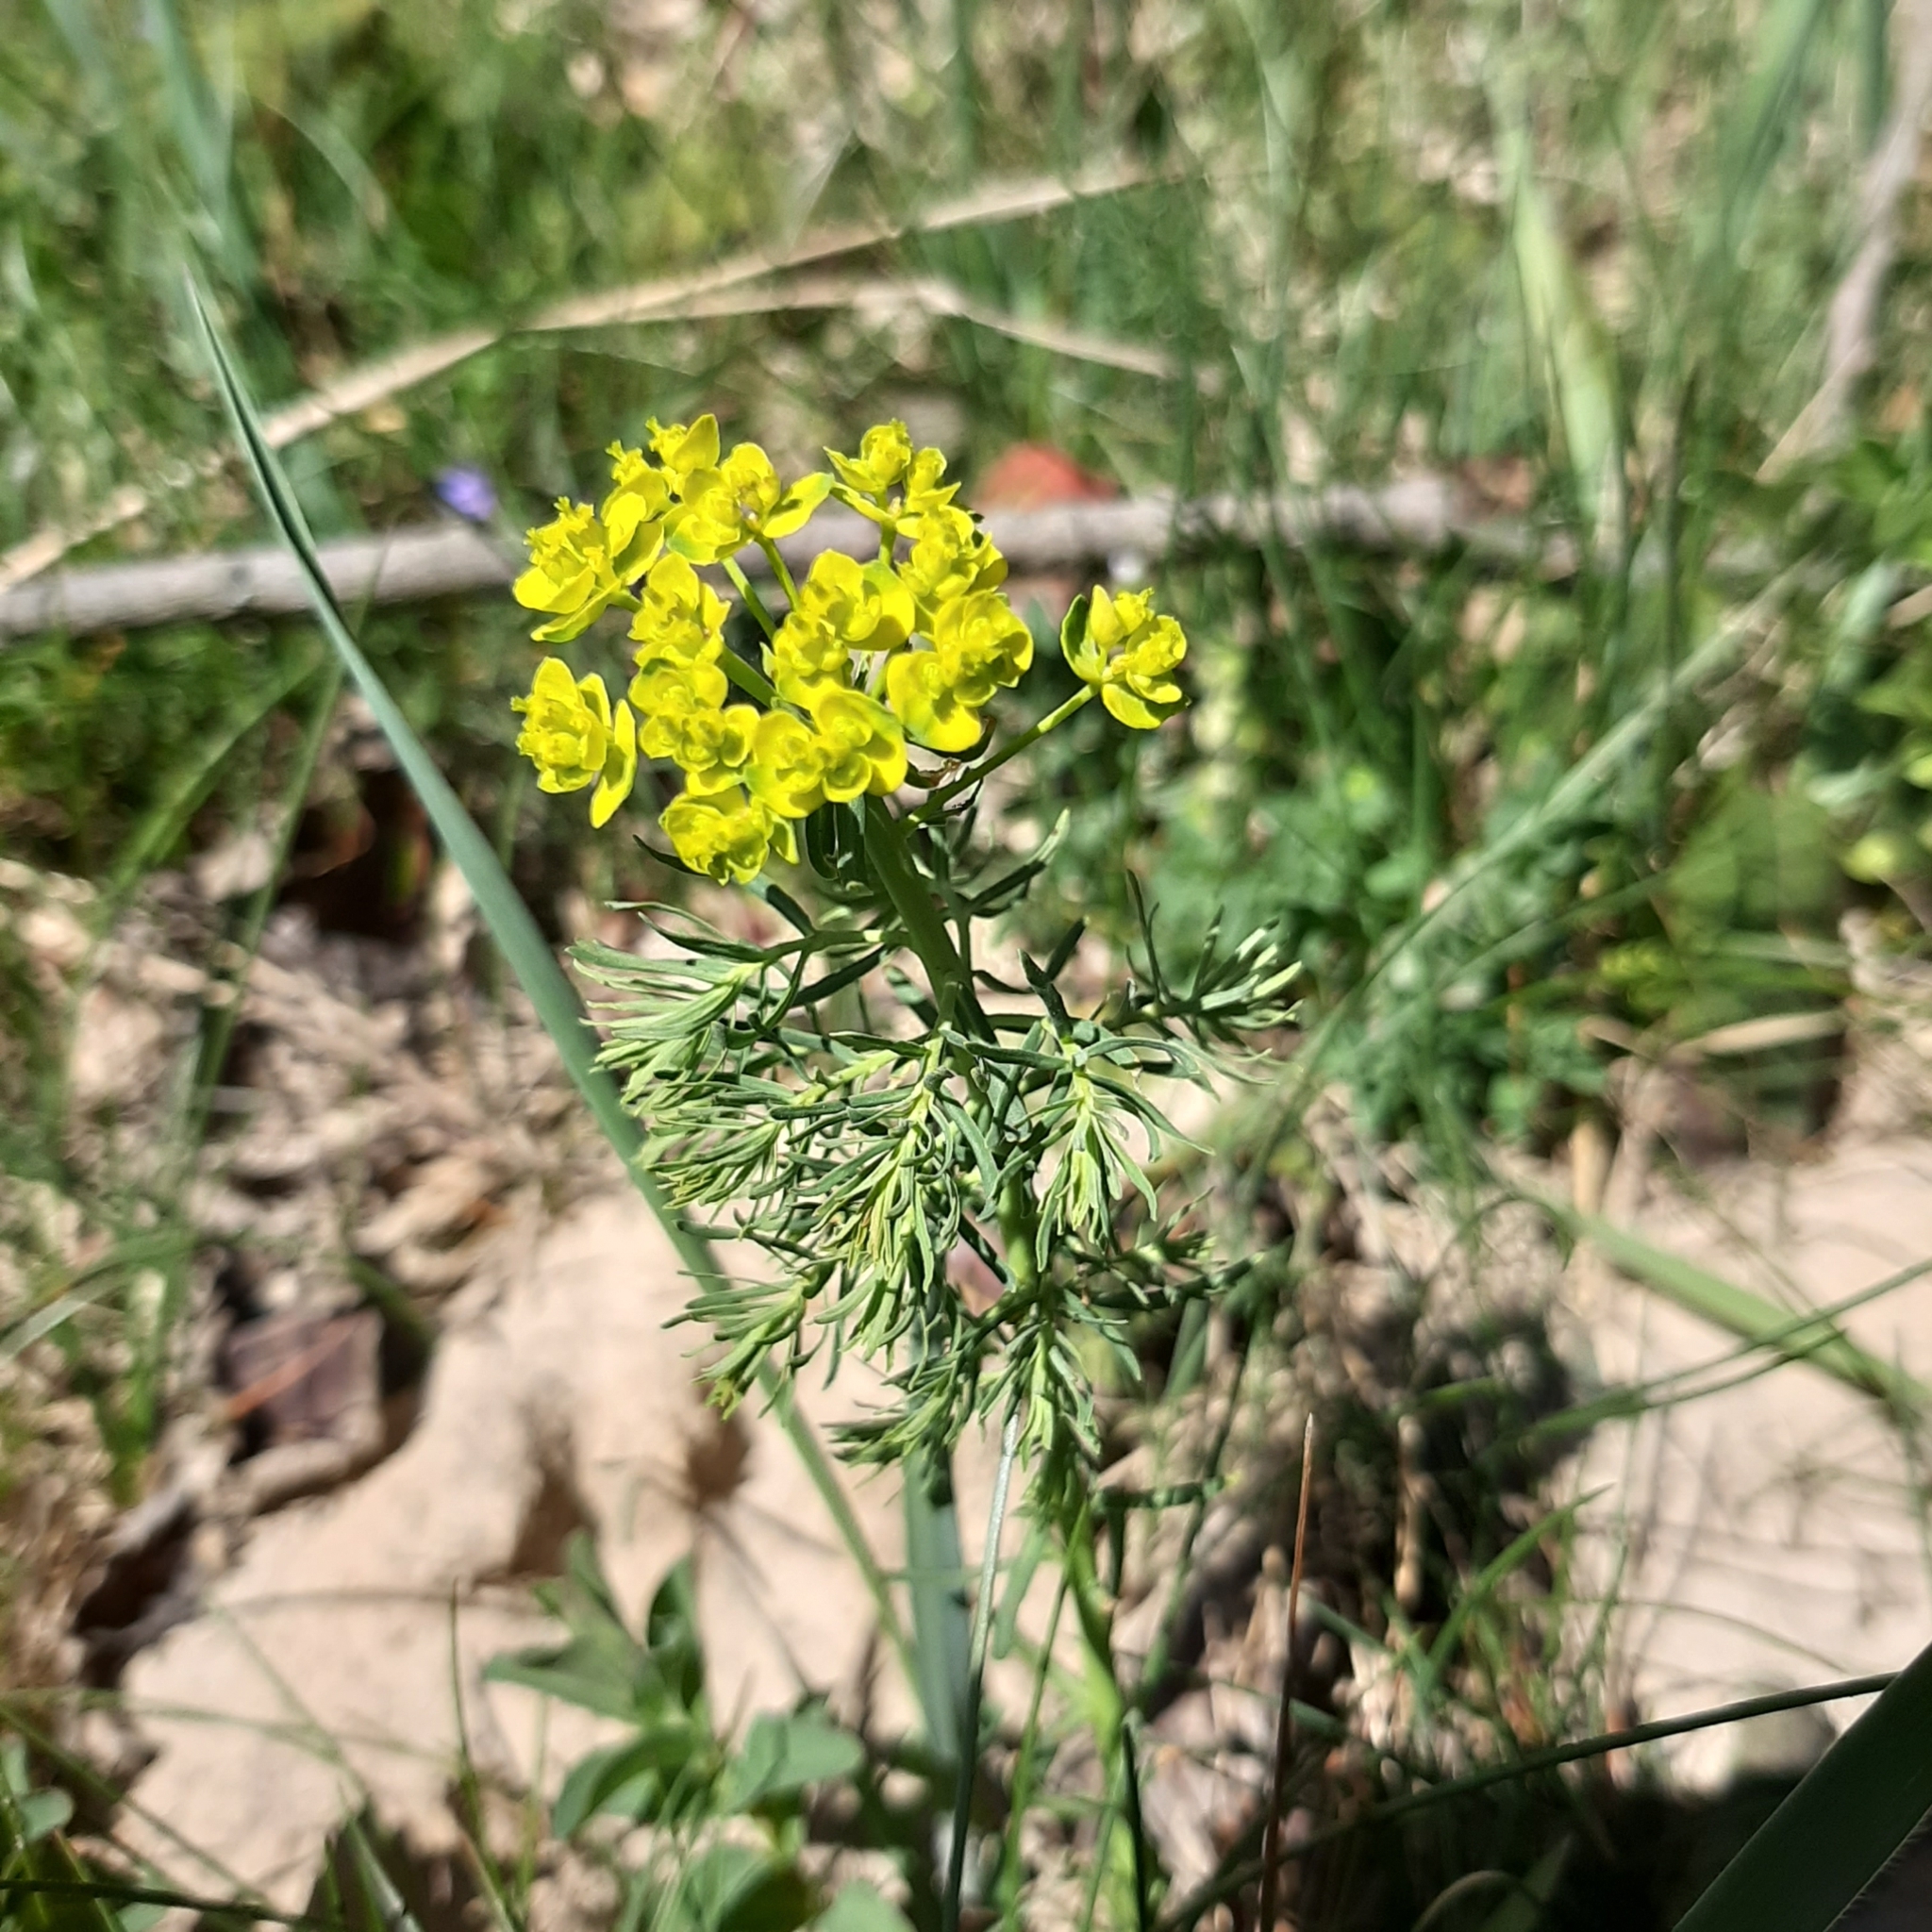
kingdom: Plantae
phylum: Tracheophyta
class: Magnoliopsida
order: Malpighiales
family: Euphorbiaceae
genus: Euphorbia
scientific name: Euphorbia cyparissias
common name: Cypress spurge
